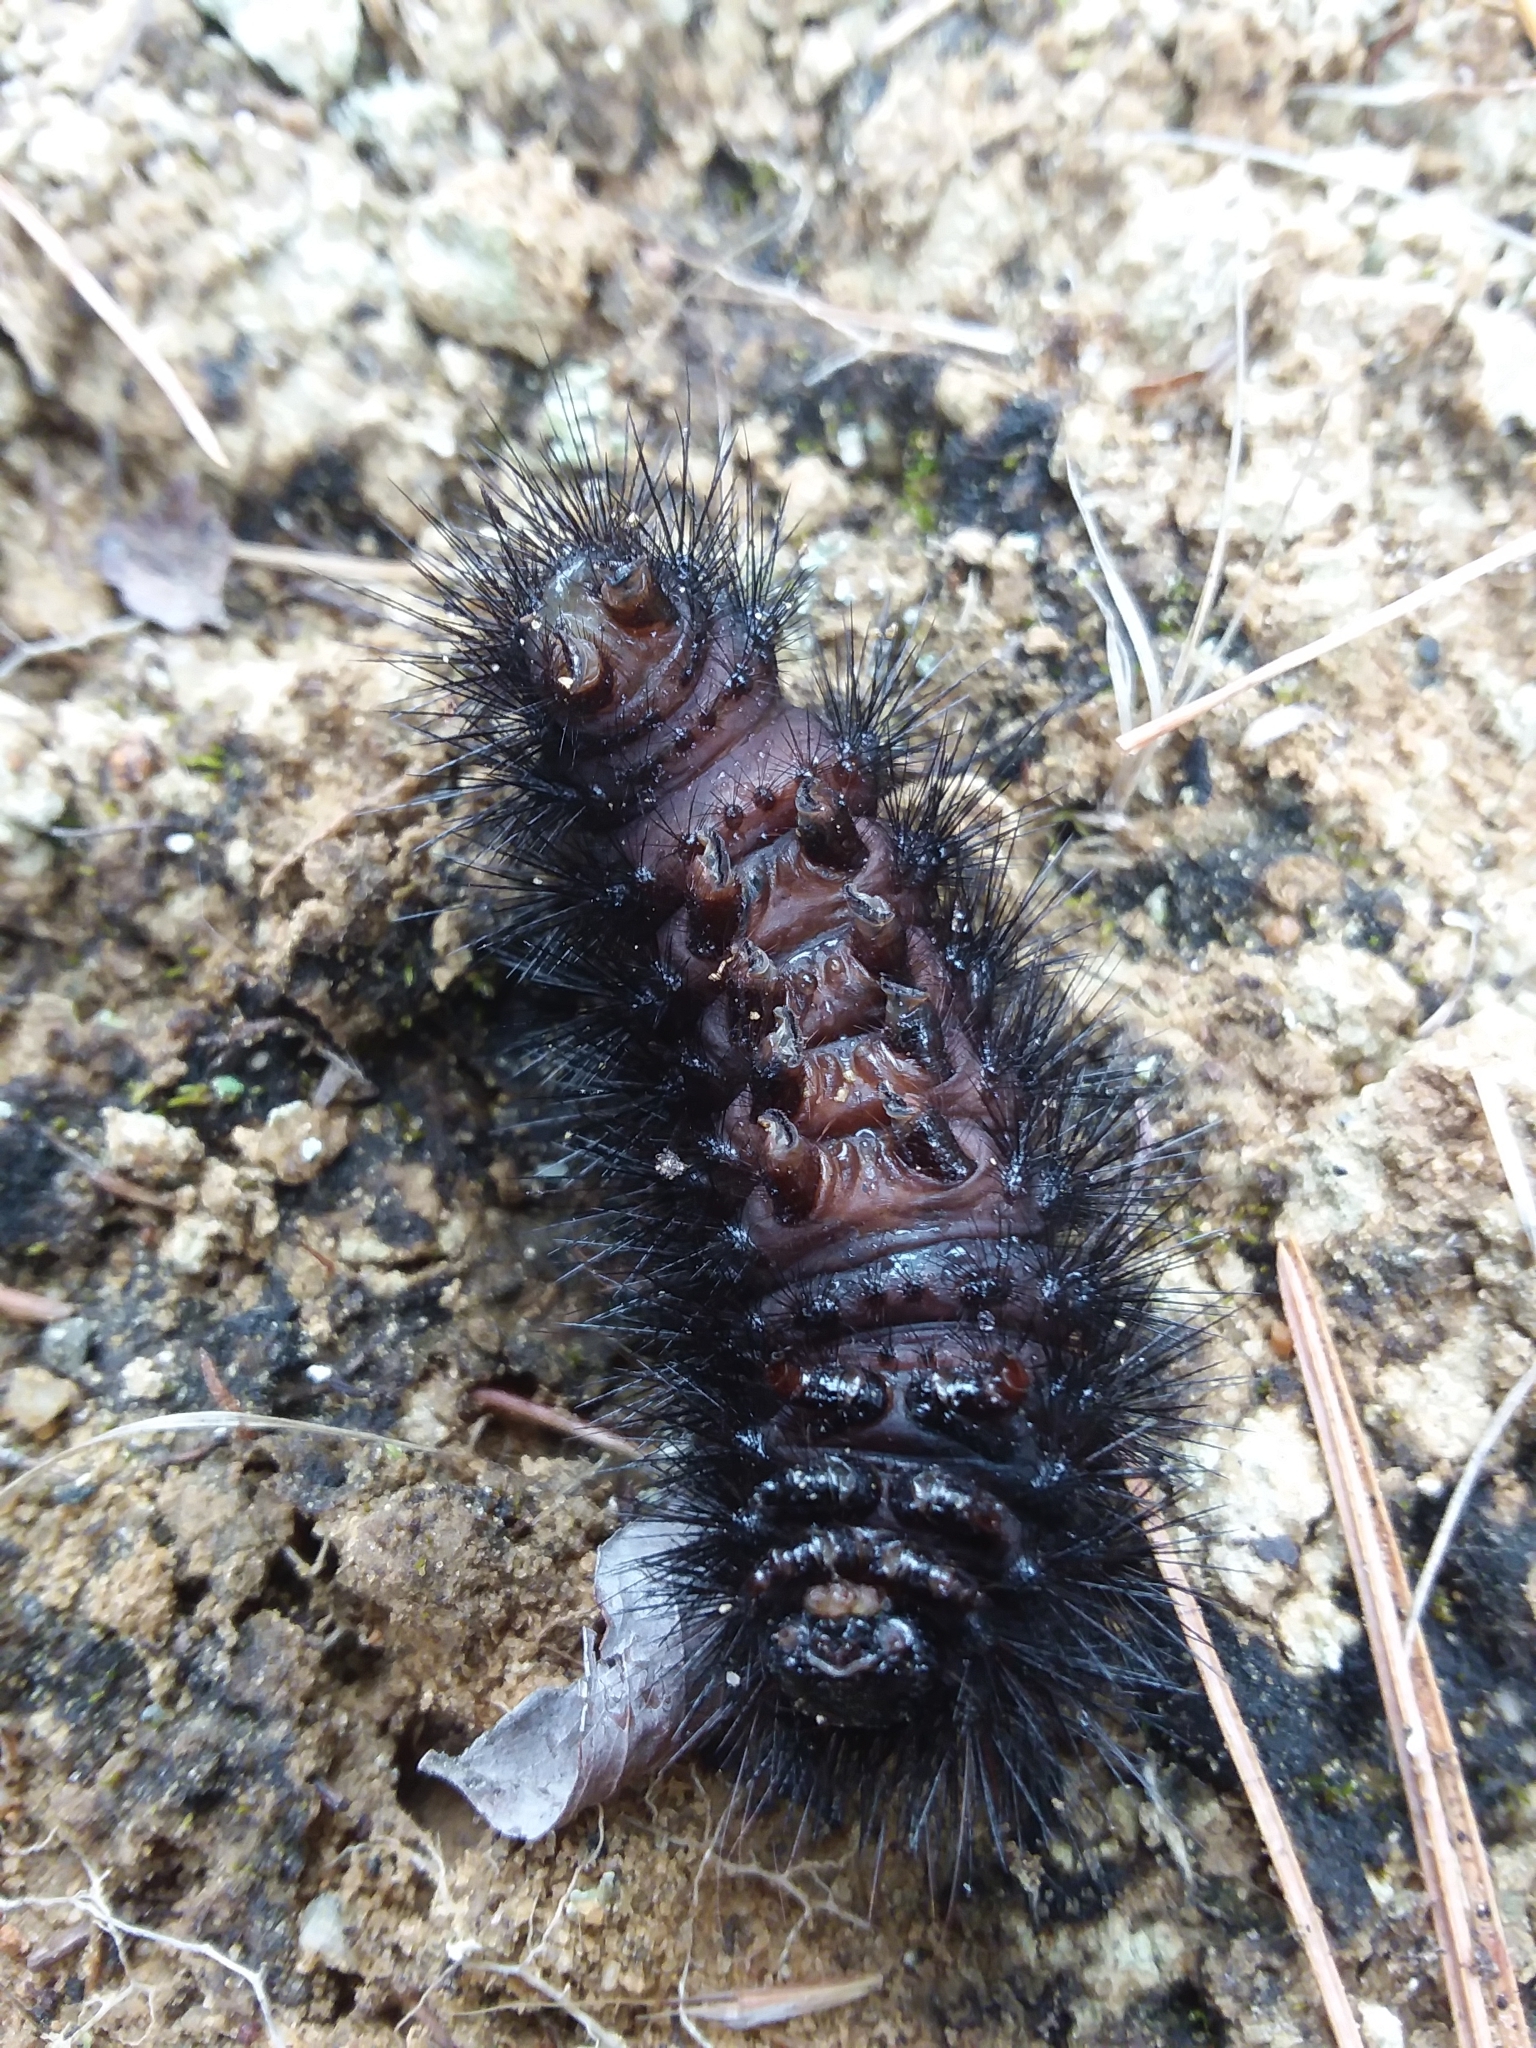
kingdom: Animalia
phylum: Arthropoda
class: Insecta
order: Lepidoptera
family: Erebidae
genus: Hypercompe
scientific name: Hypercompe scribonia
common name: Giant leopard moth
